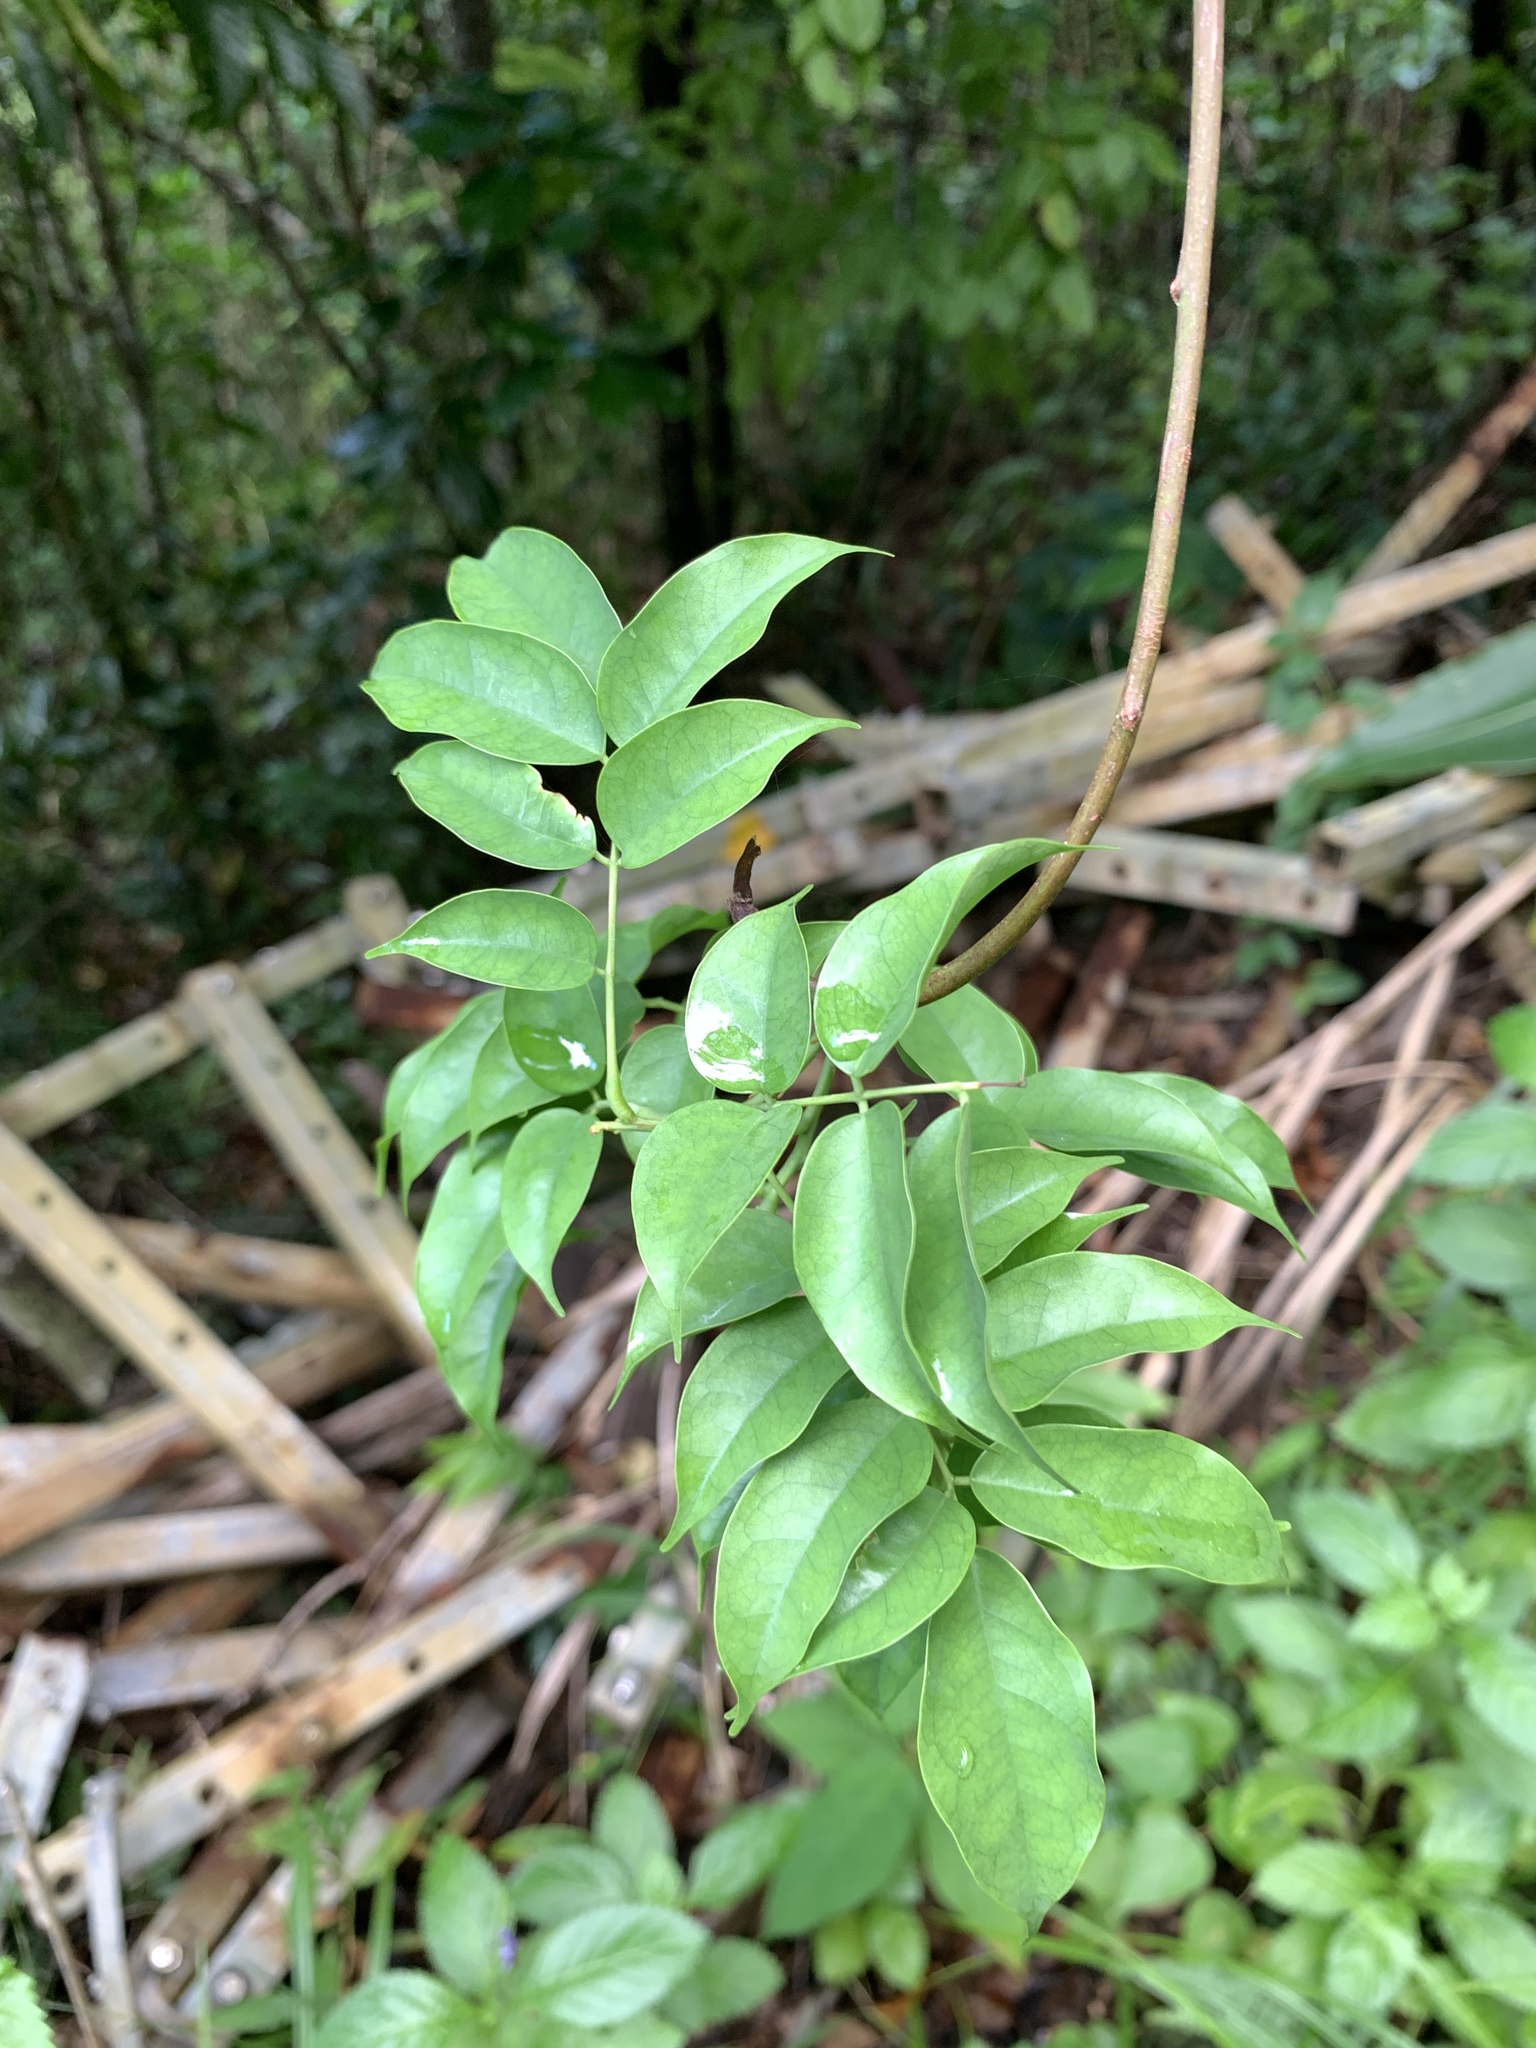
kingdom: Plantae
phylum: Tracheophyta
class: Magnoliopsida
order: Oxalidales
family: Connaraceae
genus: Rourea
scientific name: Rourea minor
